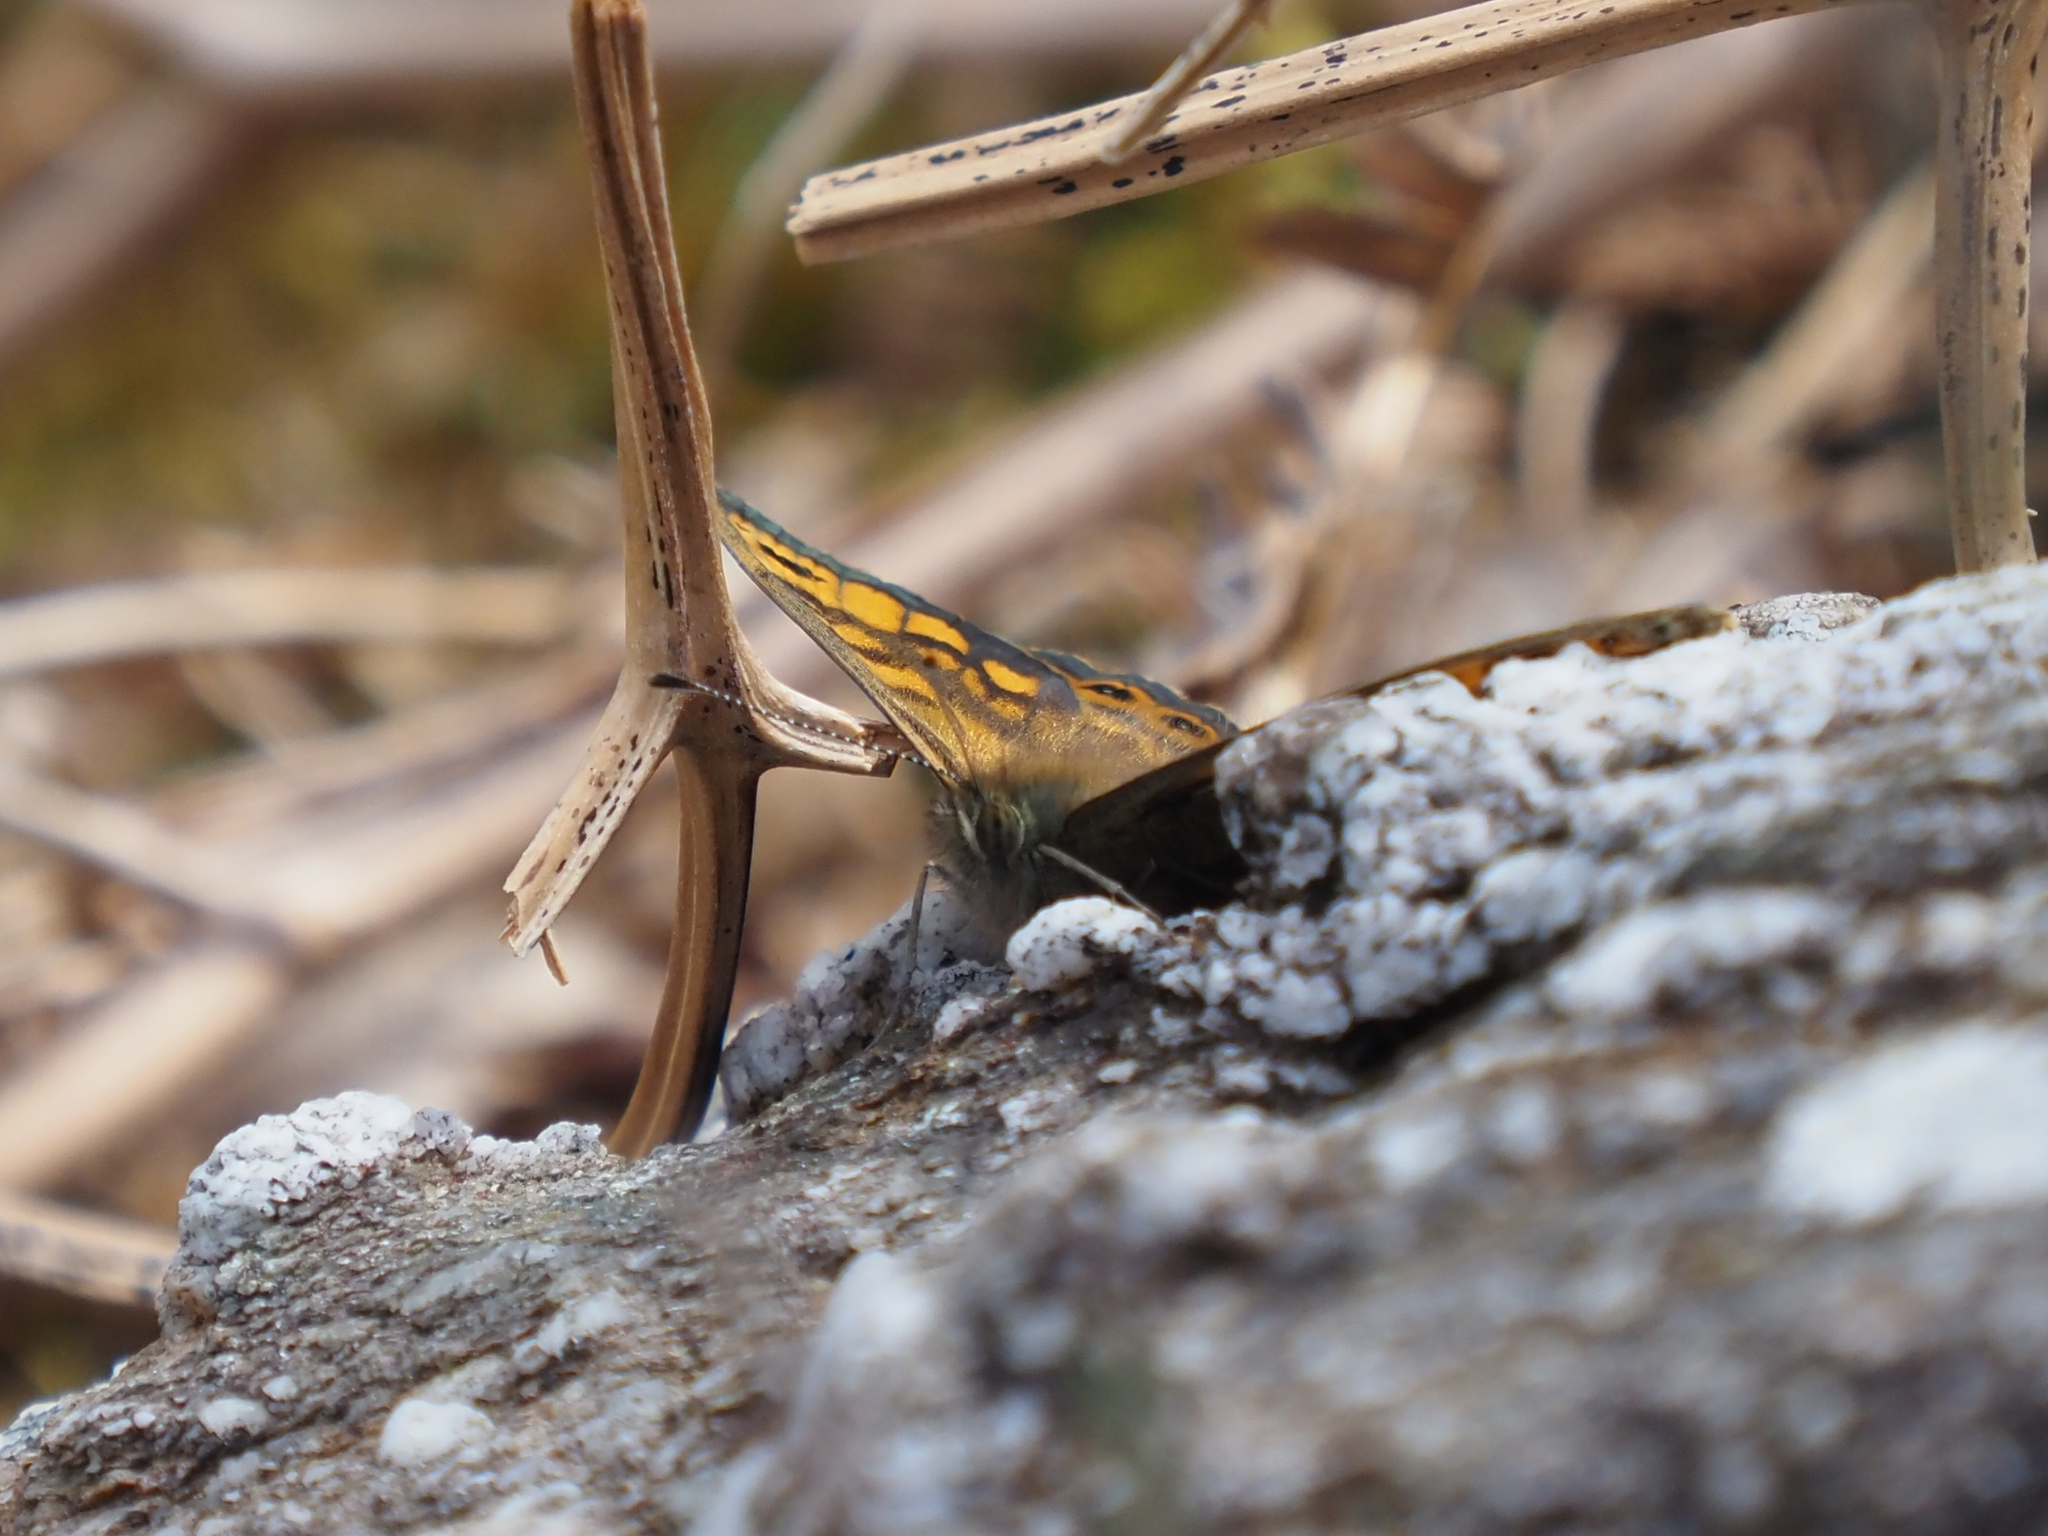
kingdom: Animalia
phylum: Arthropoda
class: Insecta
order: Lepidoptera
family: Nymphalidae
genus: Pararge
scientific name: Pararge Lasiommata megera
